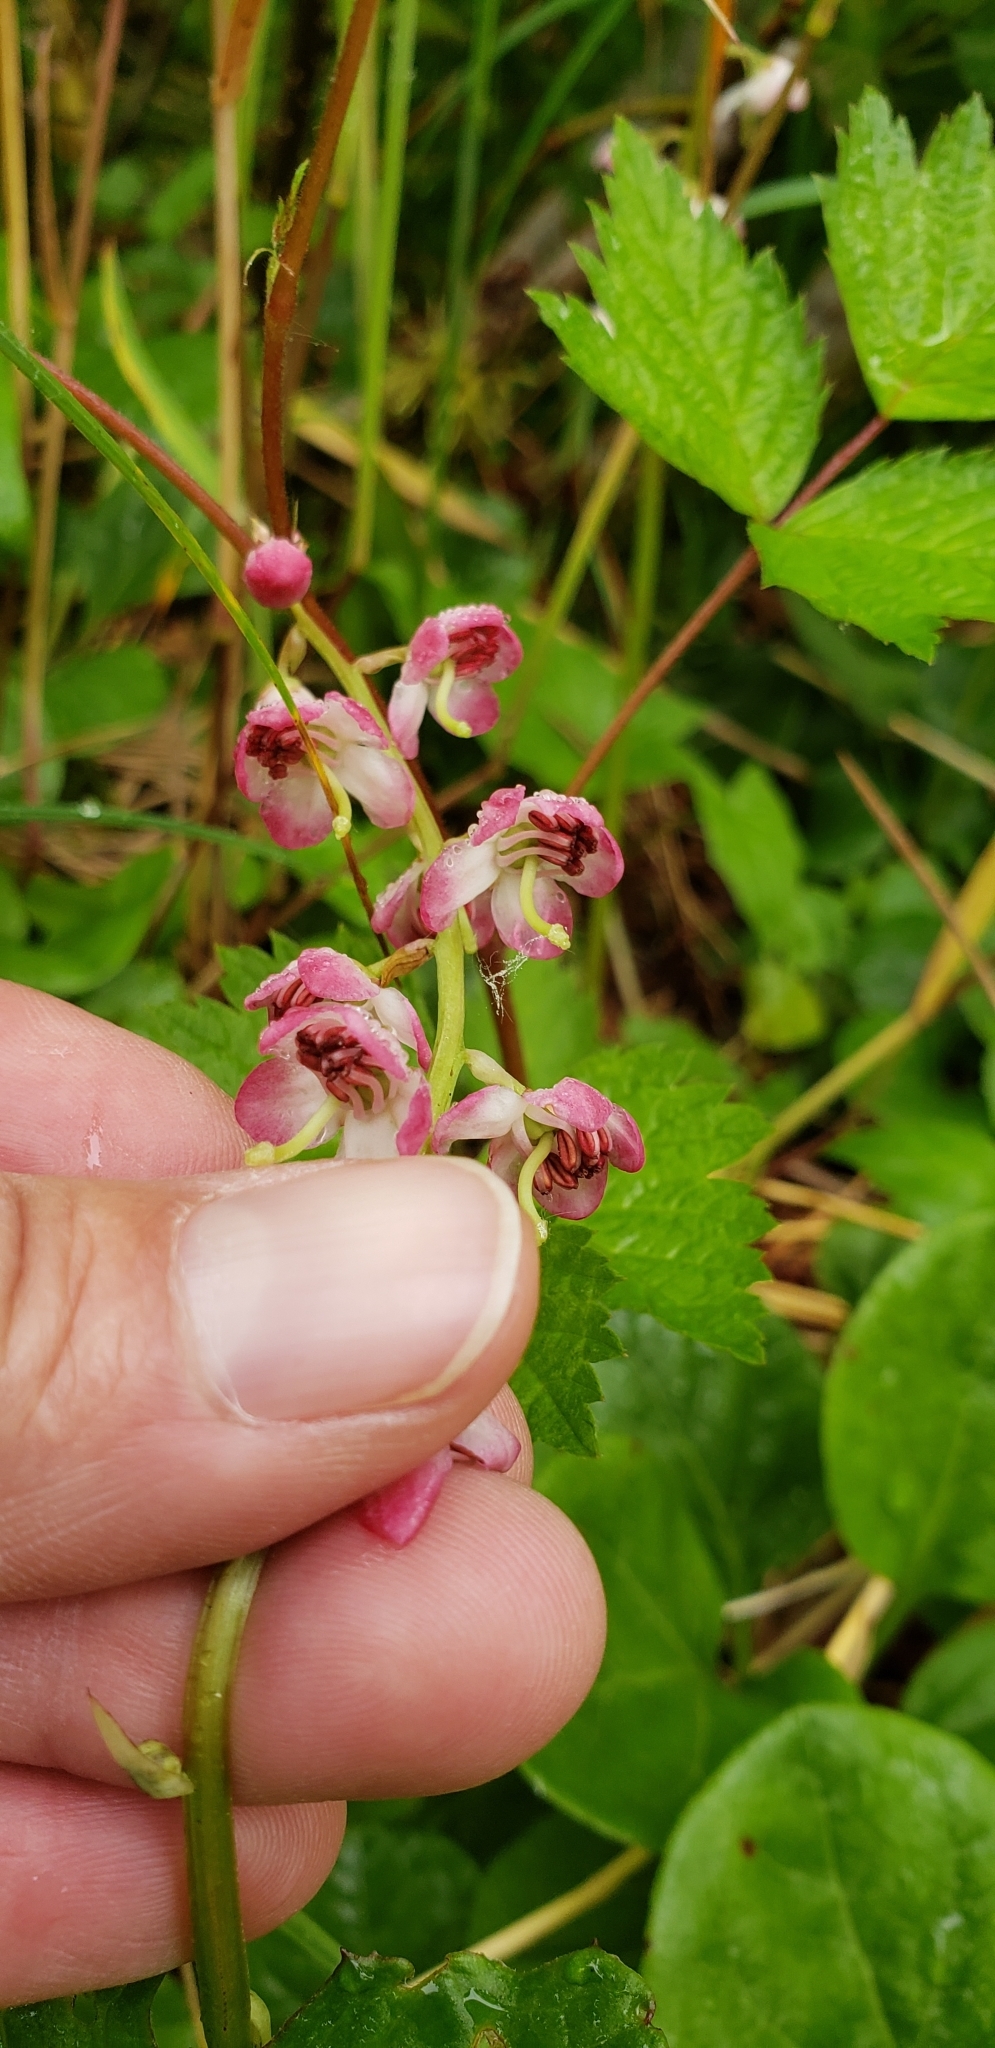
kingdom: Plantae
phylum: Tracheophyta
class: Magnoliopsida
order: Ericales
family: Ericaceae
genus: Pyrola
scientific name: Pyrola asarifolia
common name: Bog wintergreen
